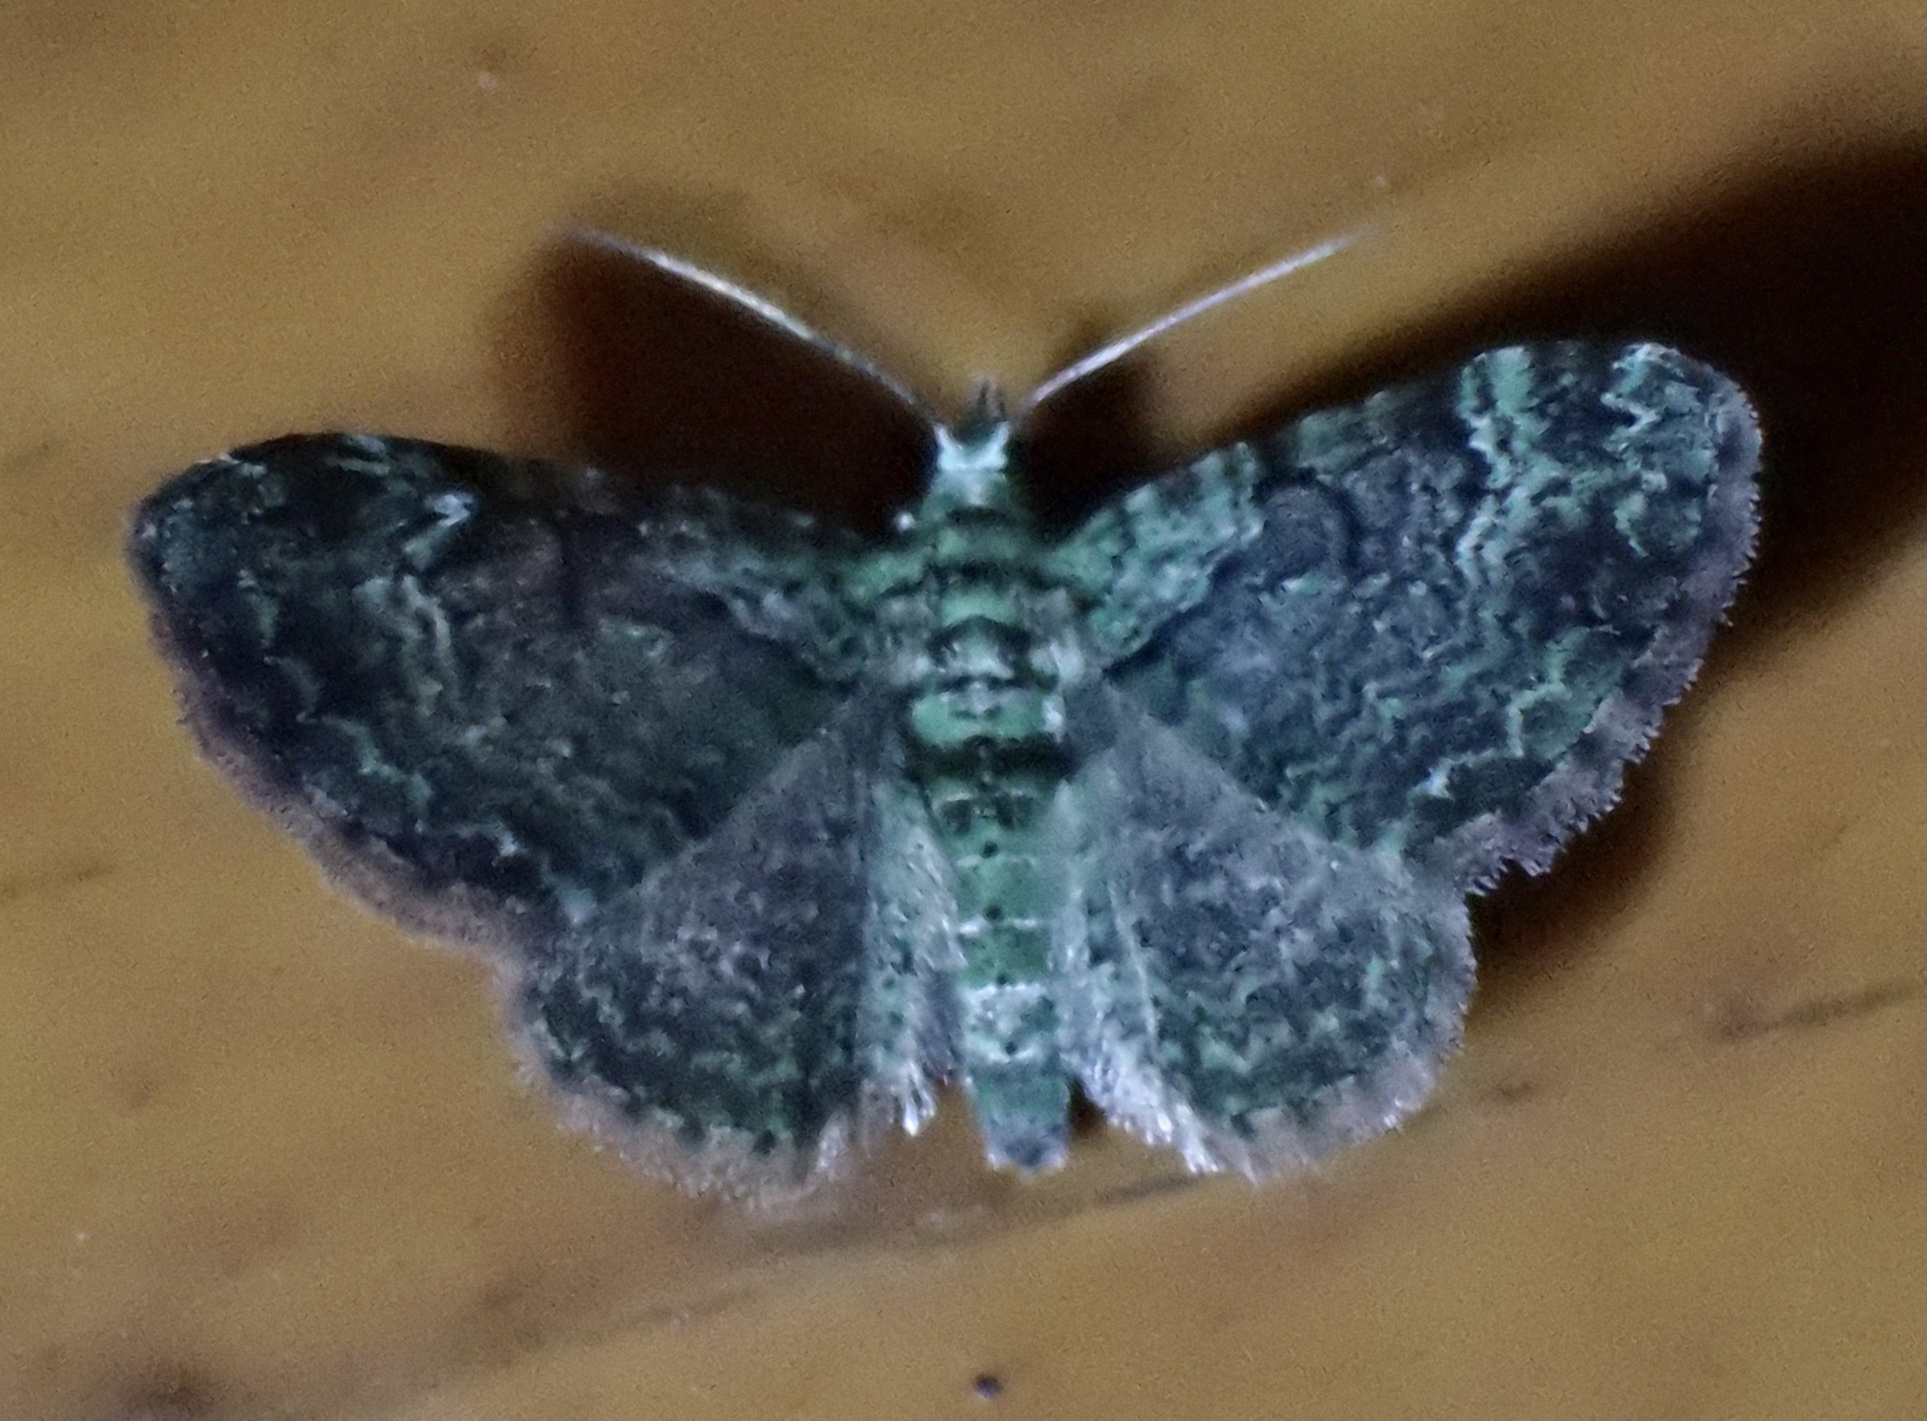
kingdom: Animalia
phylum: Arthropoda
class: Insecta
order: Lepidoptera
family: Geometridae
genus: Pasiphila
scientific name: Pasiphila rectangulata
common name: Green pug
